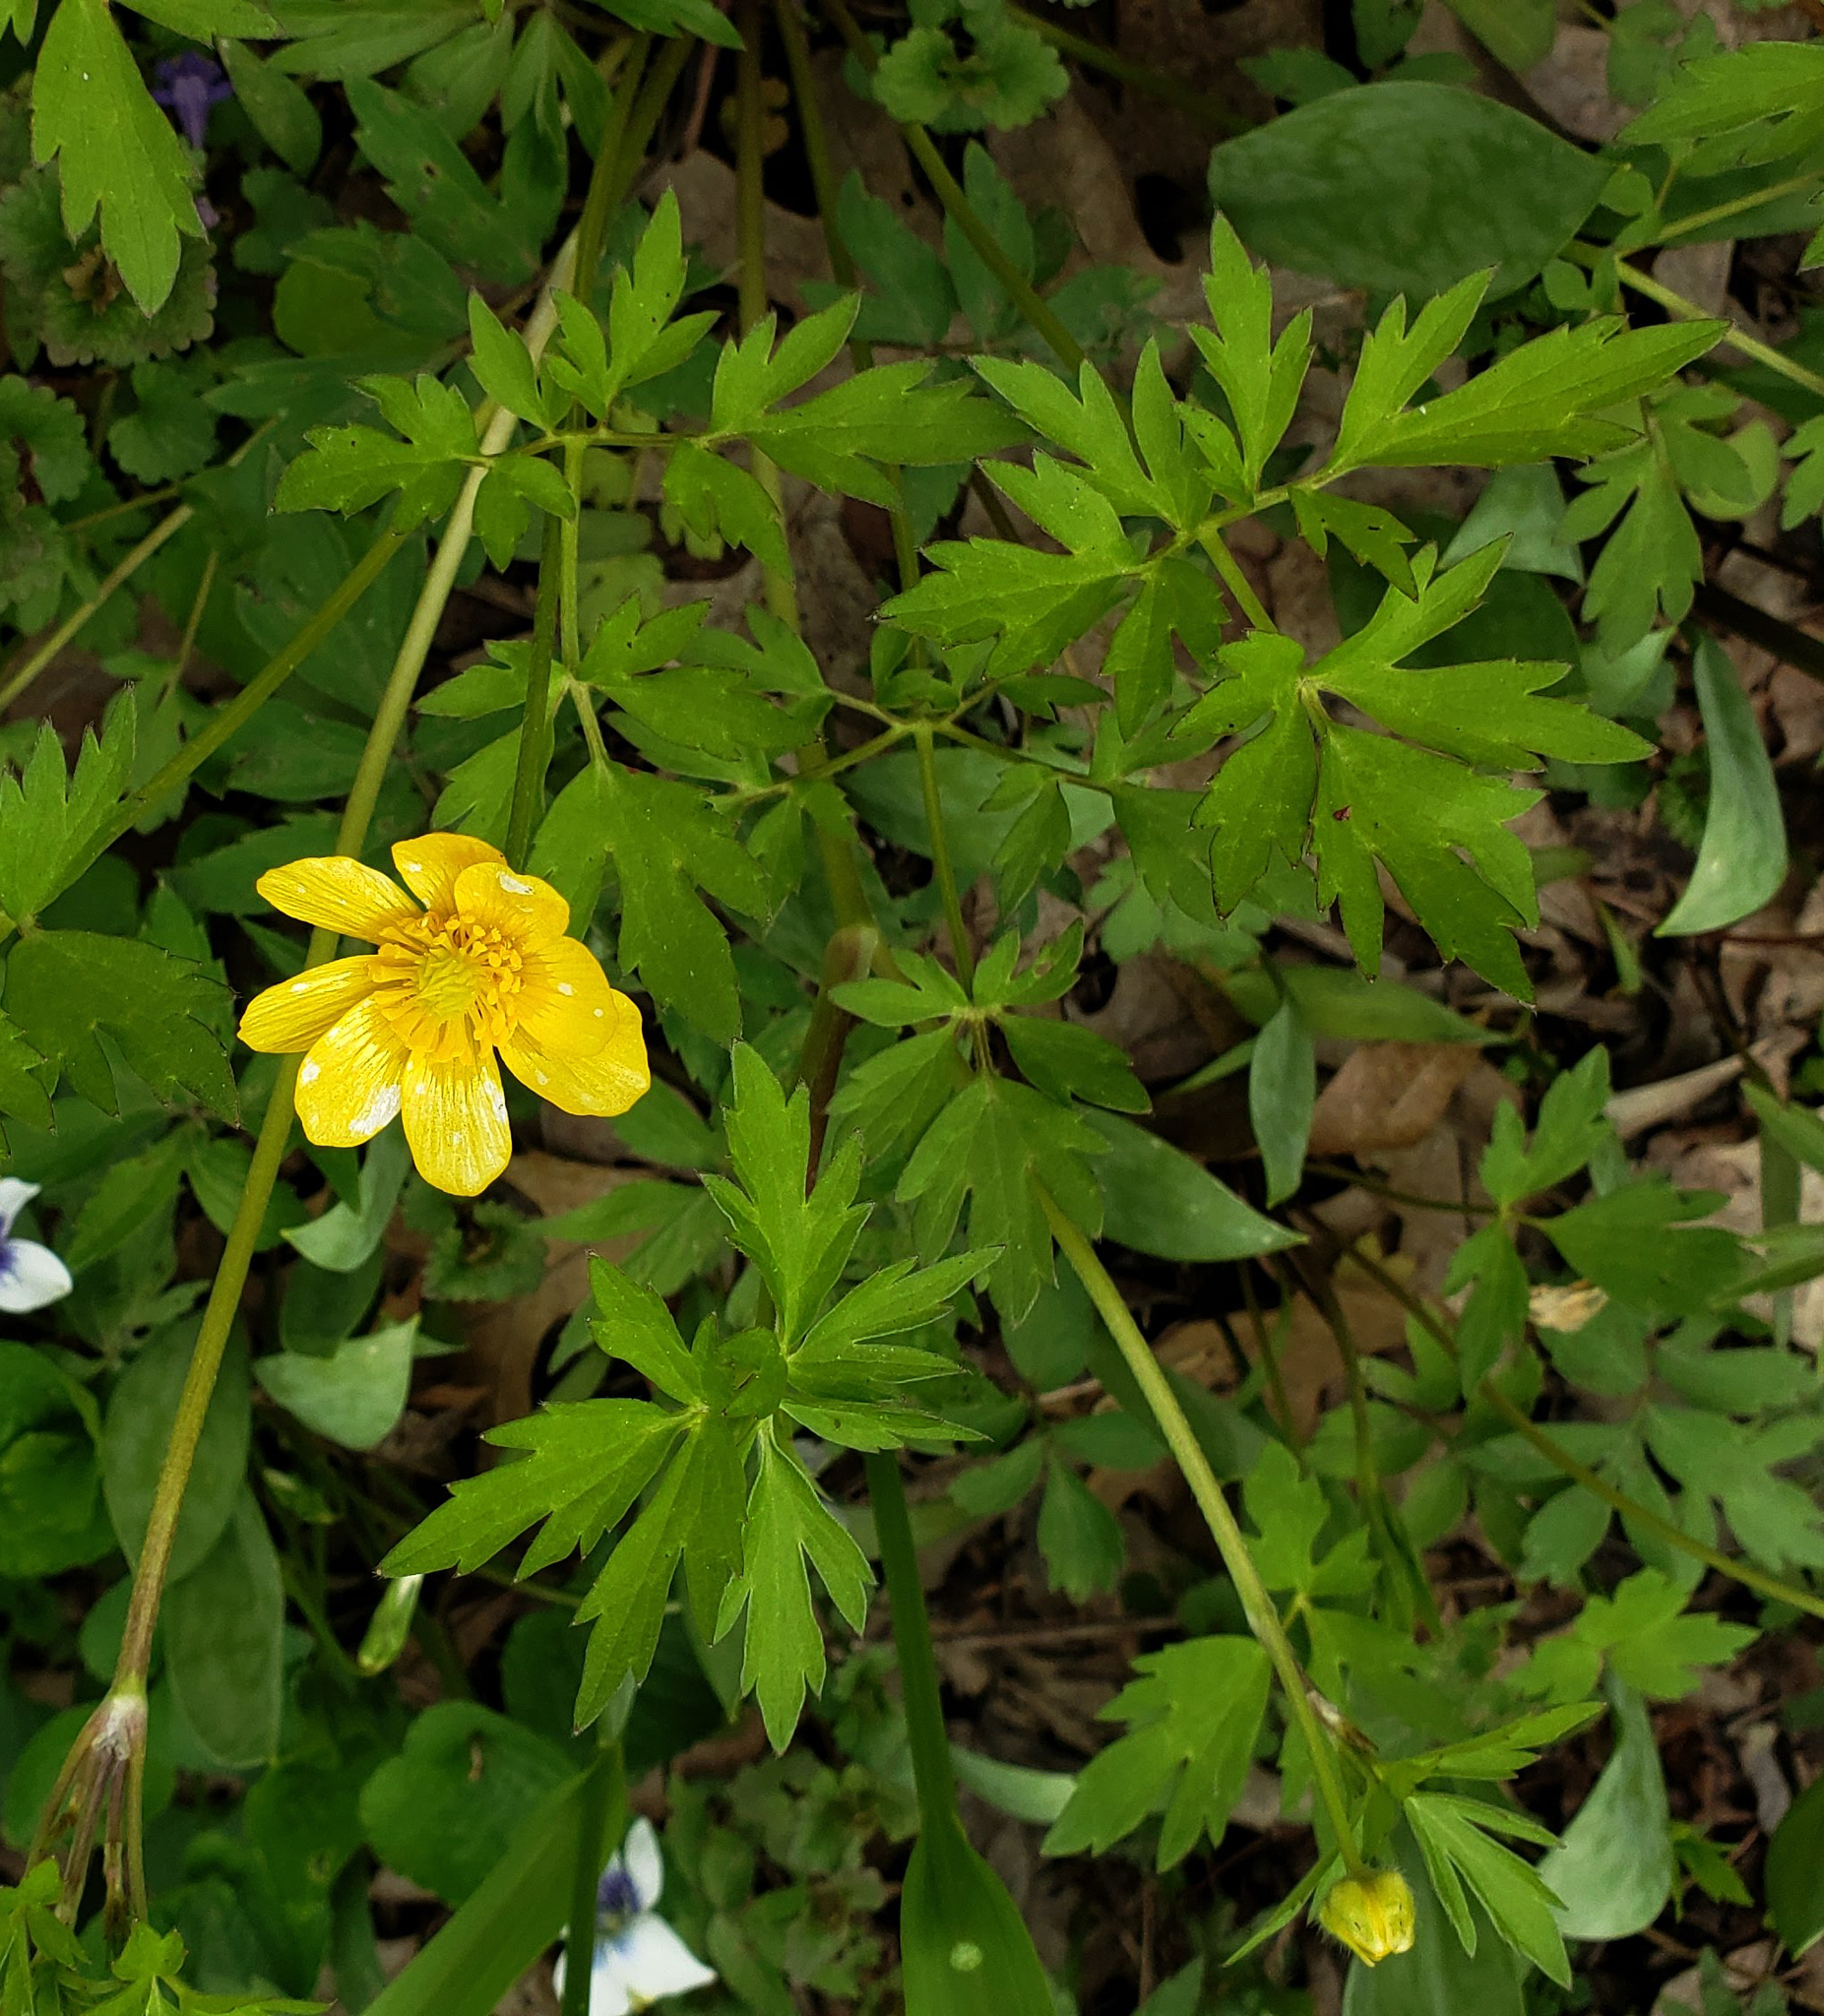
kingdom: Plantae
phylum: Tracheophyta
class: Magnoliopsida
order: Ranunculales
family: Ranunculaceae
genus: Ranunculus
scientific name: Ranunculus hispidus
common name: Bristly buttercup
